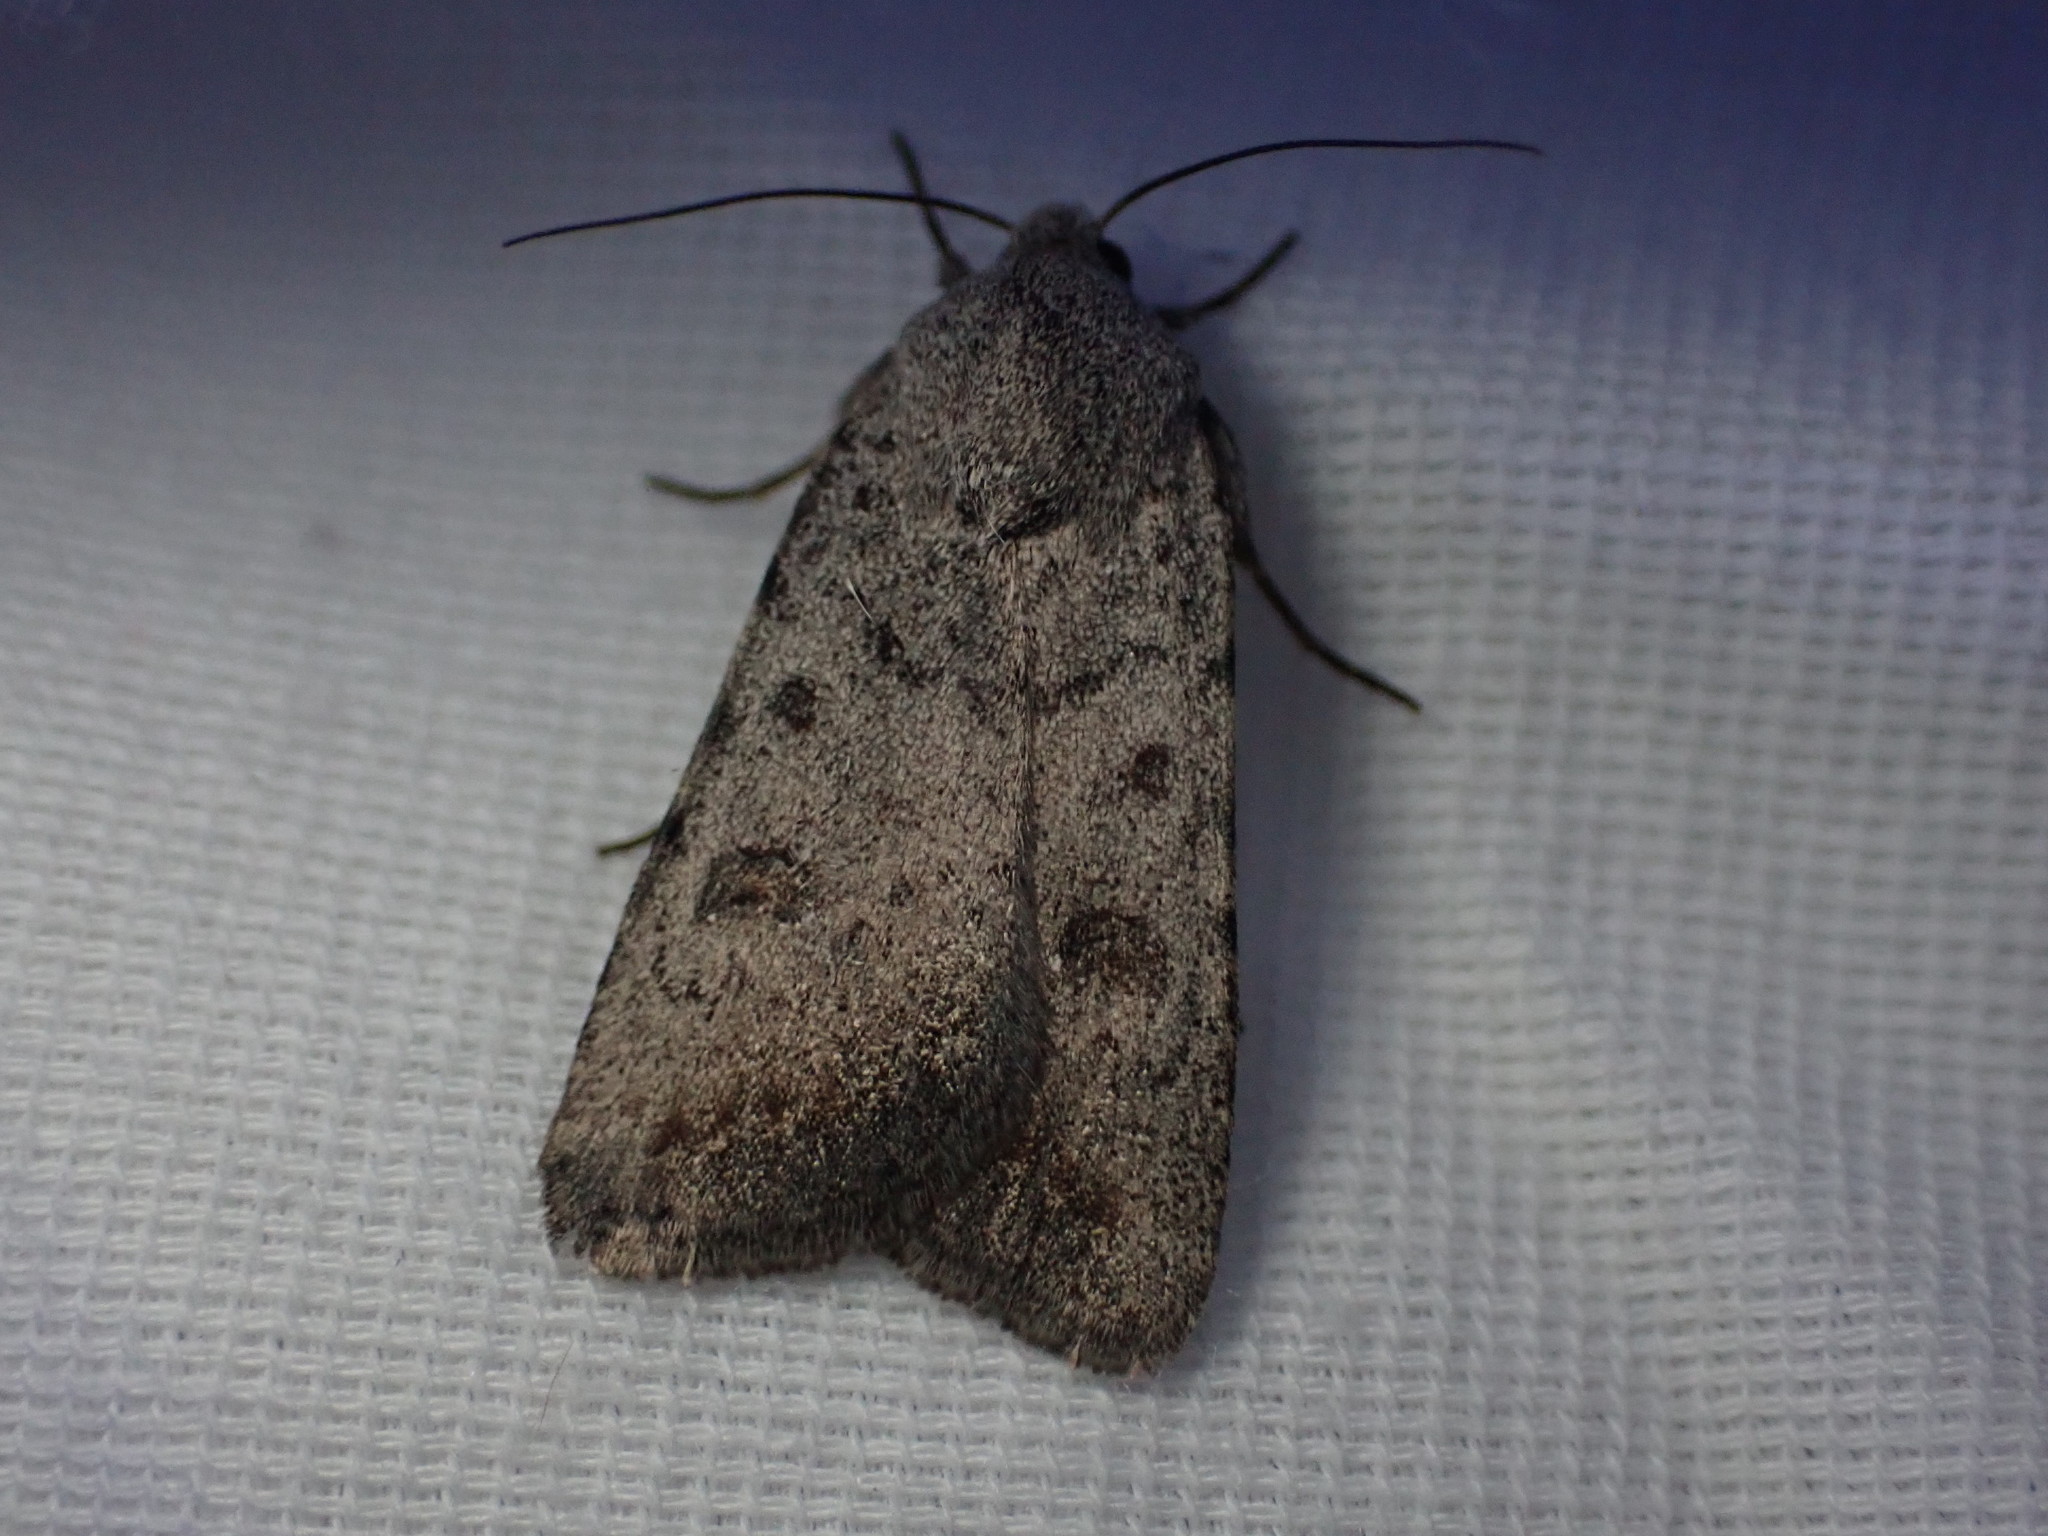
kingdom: Animalia
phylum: Arthropoda
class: Insecta
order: Lepidoptera
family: Noctuidae
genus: Caradrina
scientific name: Caradrina montana
